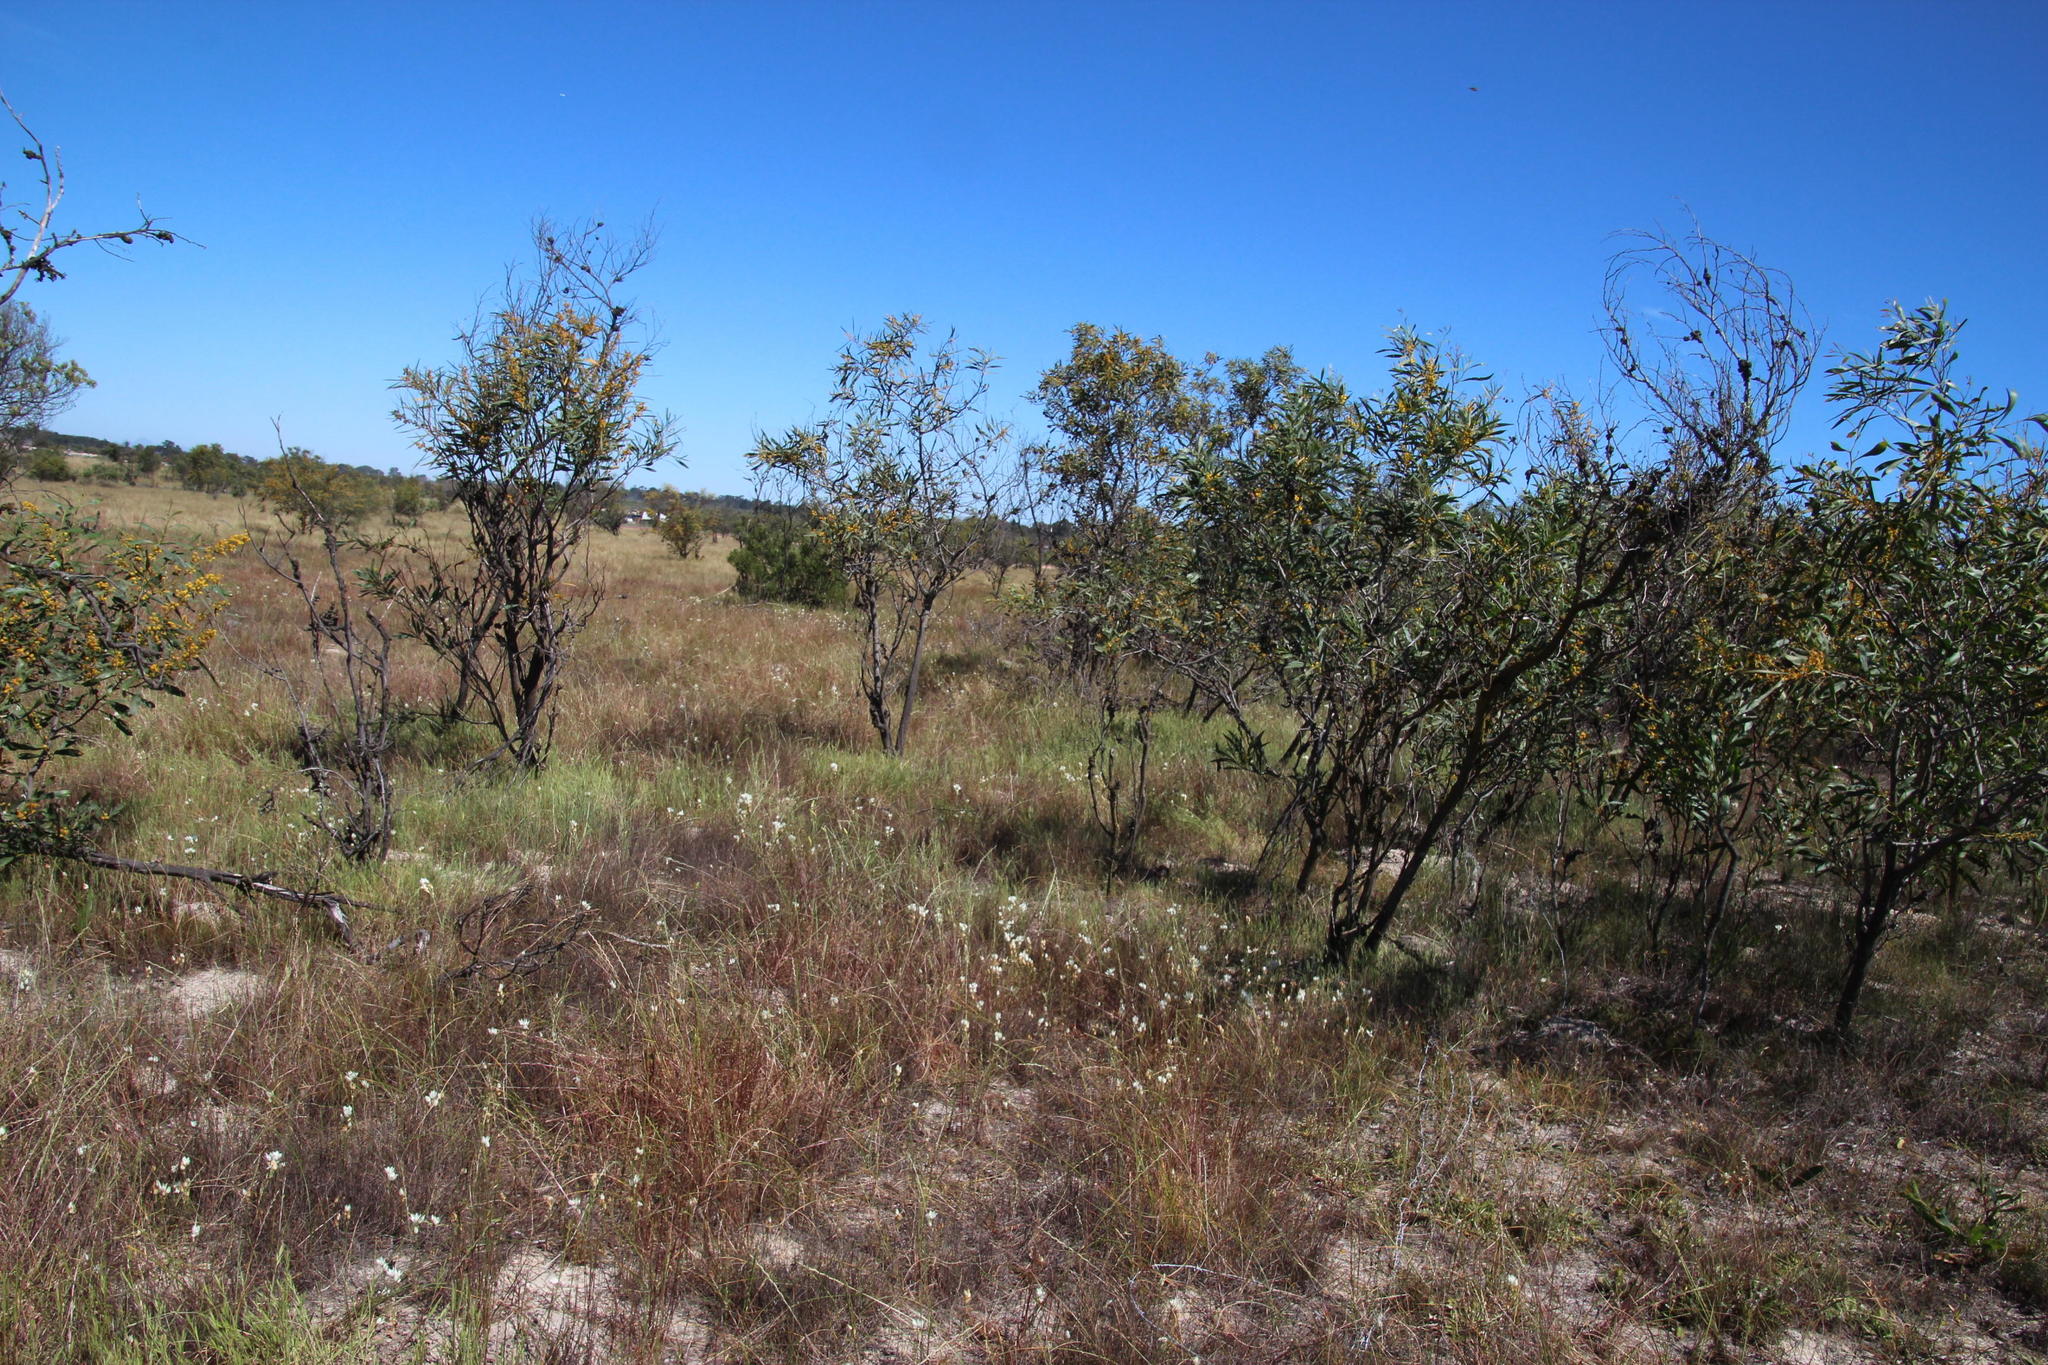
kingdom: Plantae
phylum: Tracheophyta
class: Liliopsida
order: Asparagales
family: Asparagaceae
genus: Ornithogalum
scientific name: Ornithogalum thyrsoides
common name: Chincherinchee
